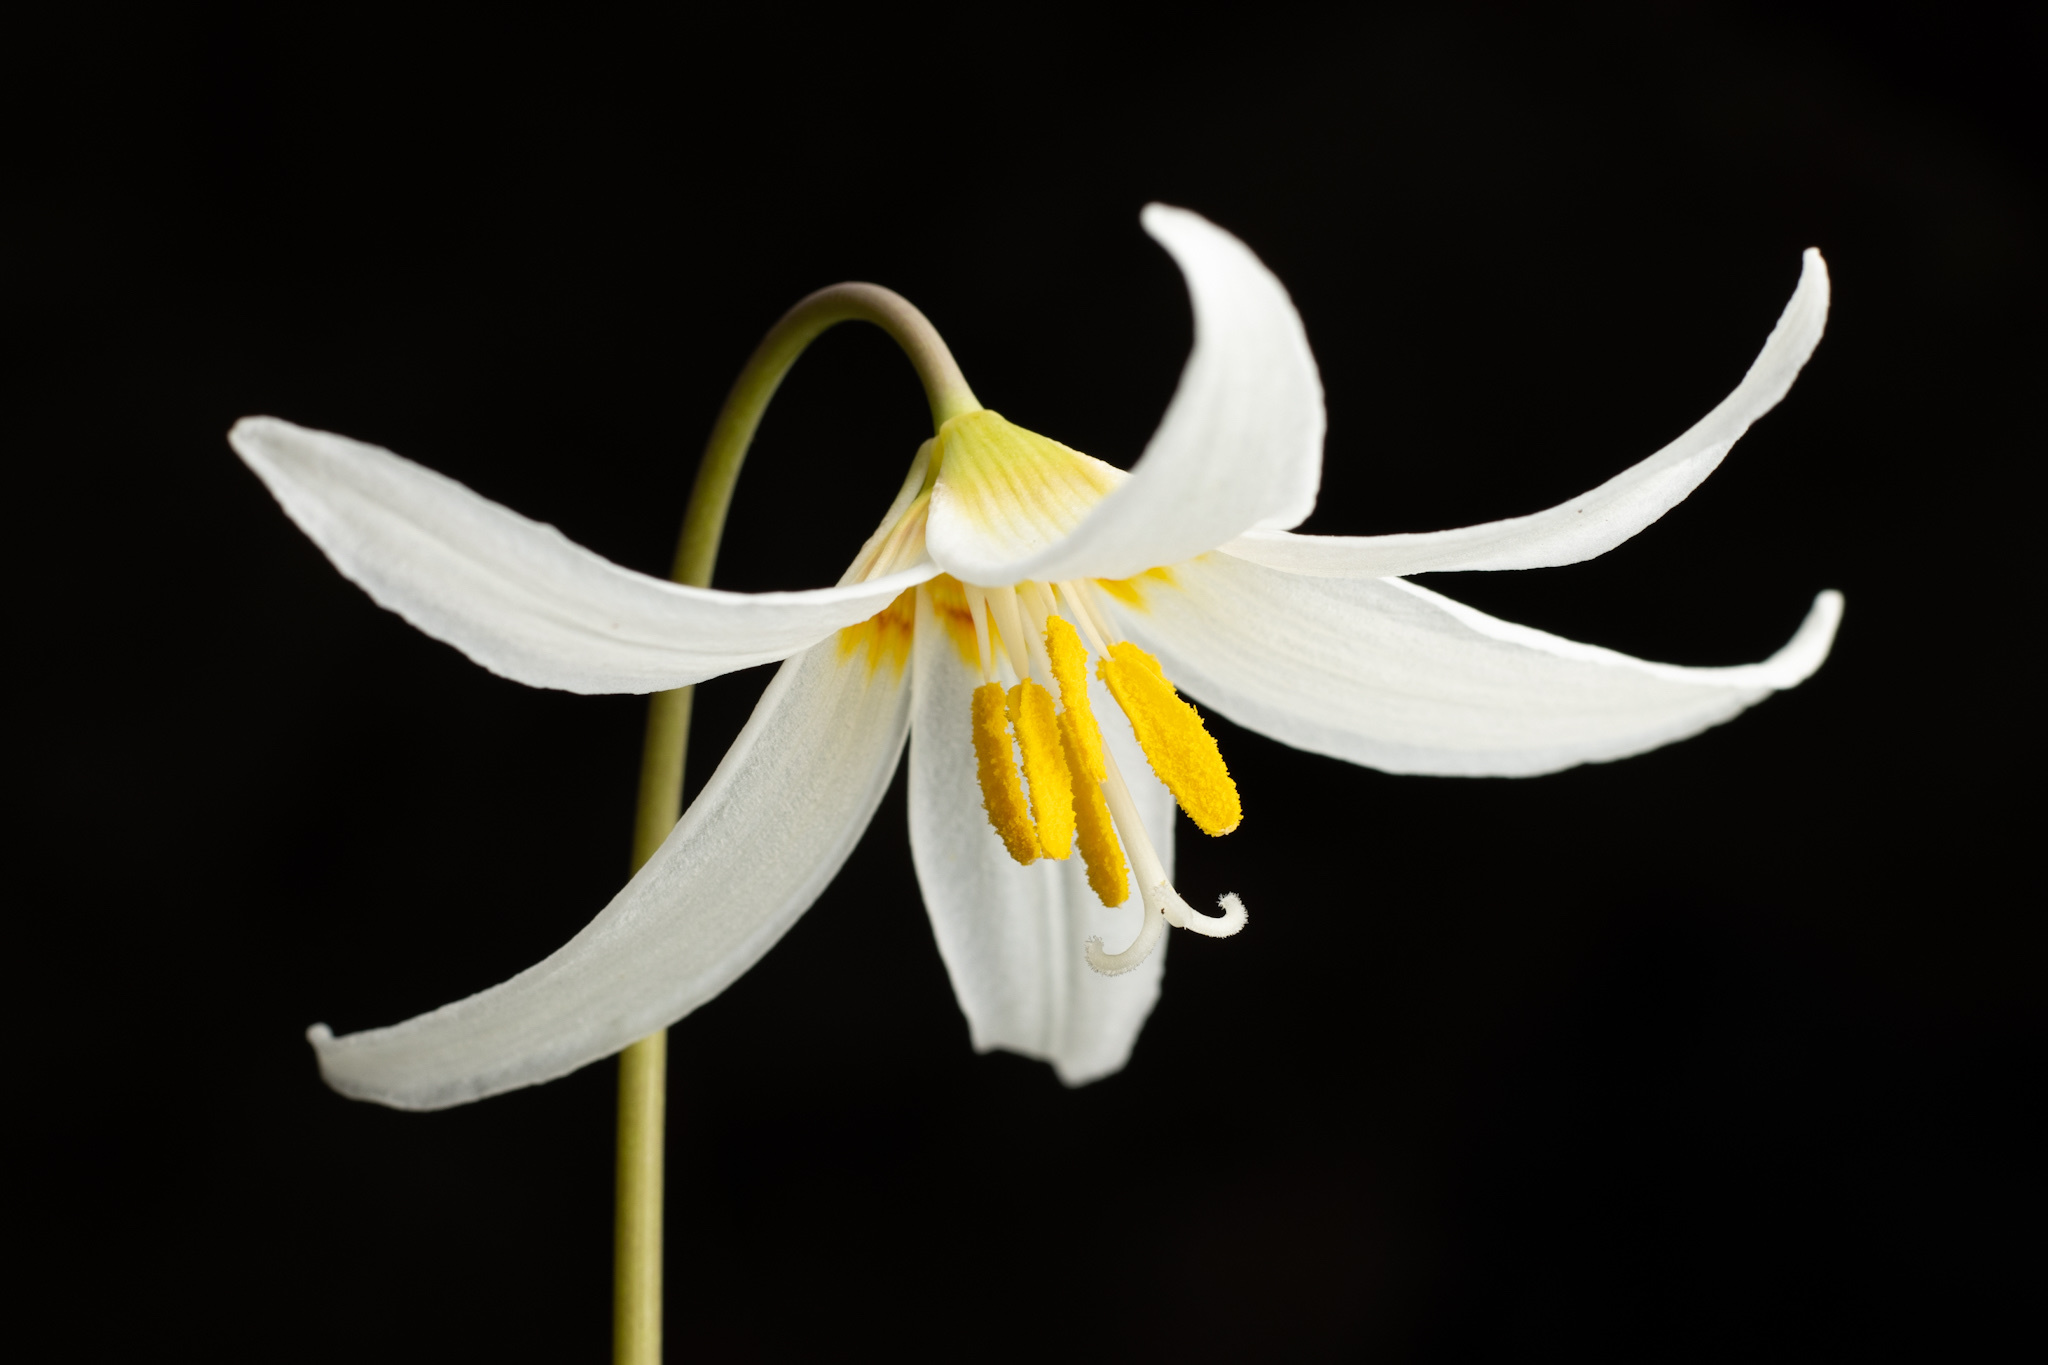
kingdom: Plantae
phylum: Tracheophyta
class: Liliopsida
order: Liliales
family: Liliaceae
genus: Erythronium
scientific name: Erythronium oregonum
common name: Giant adder's-tongue
